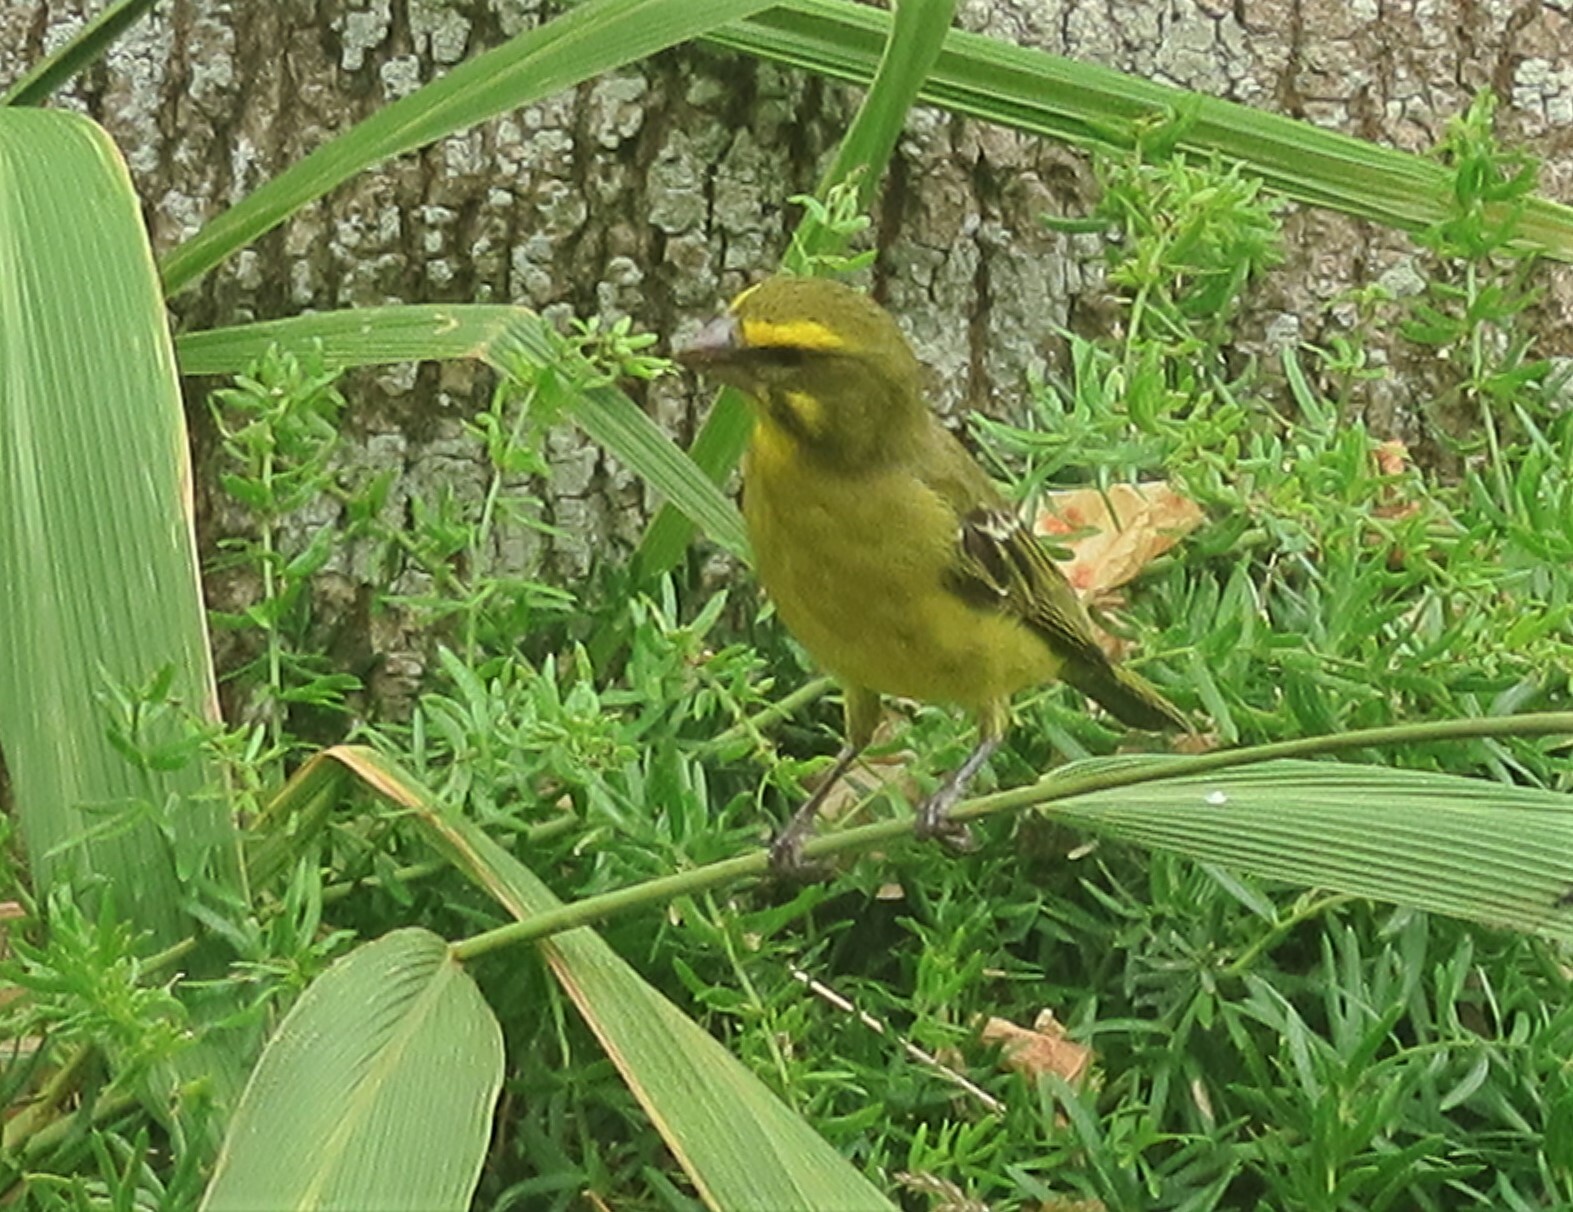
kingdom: Animalia
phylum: Chordata
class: Aves
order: Passeriformes
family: Fringillidae
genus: Crithagra
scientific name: Crithagra sulphurata
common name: Brimstone canary
